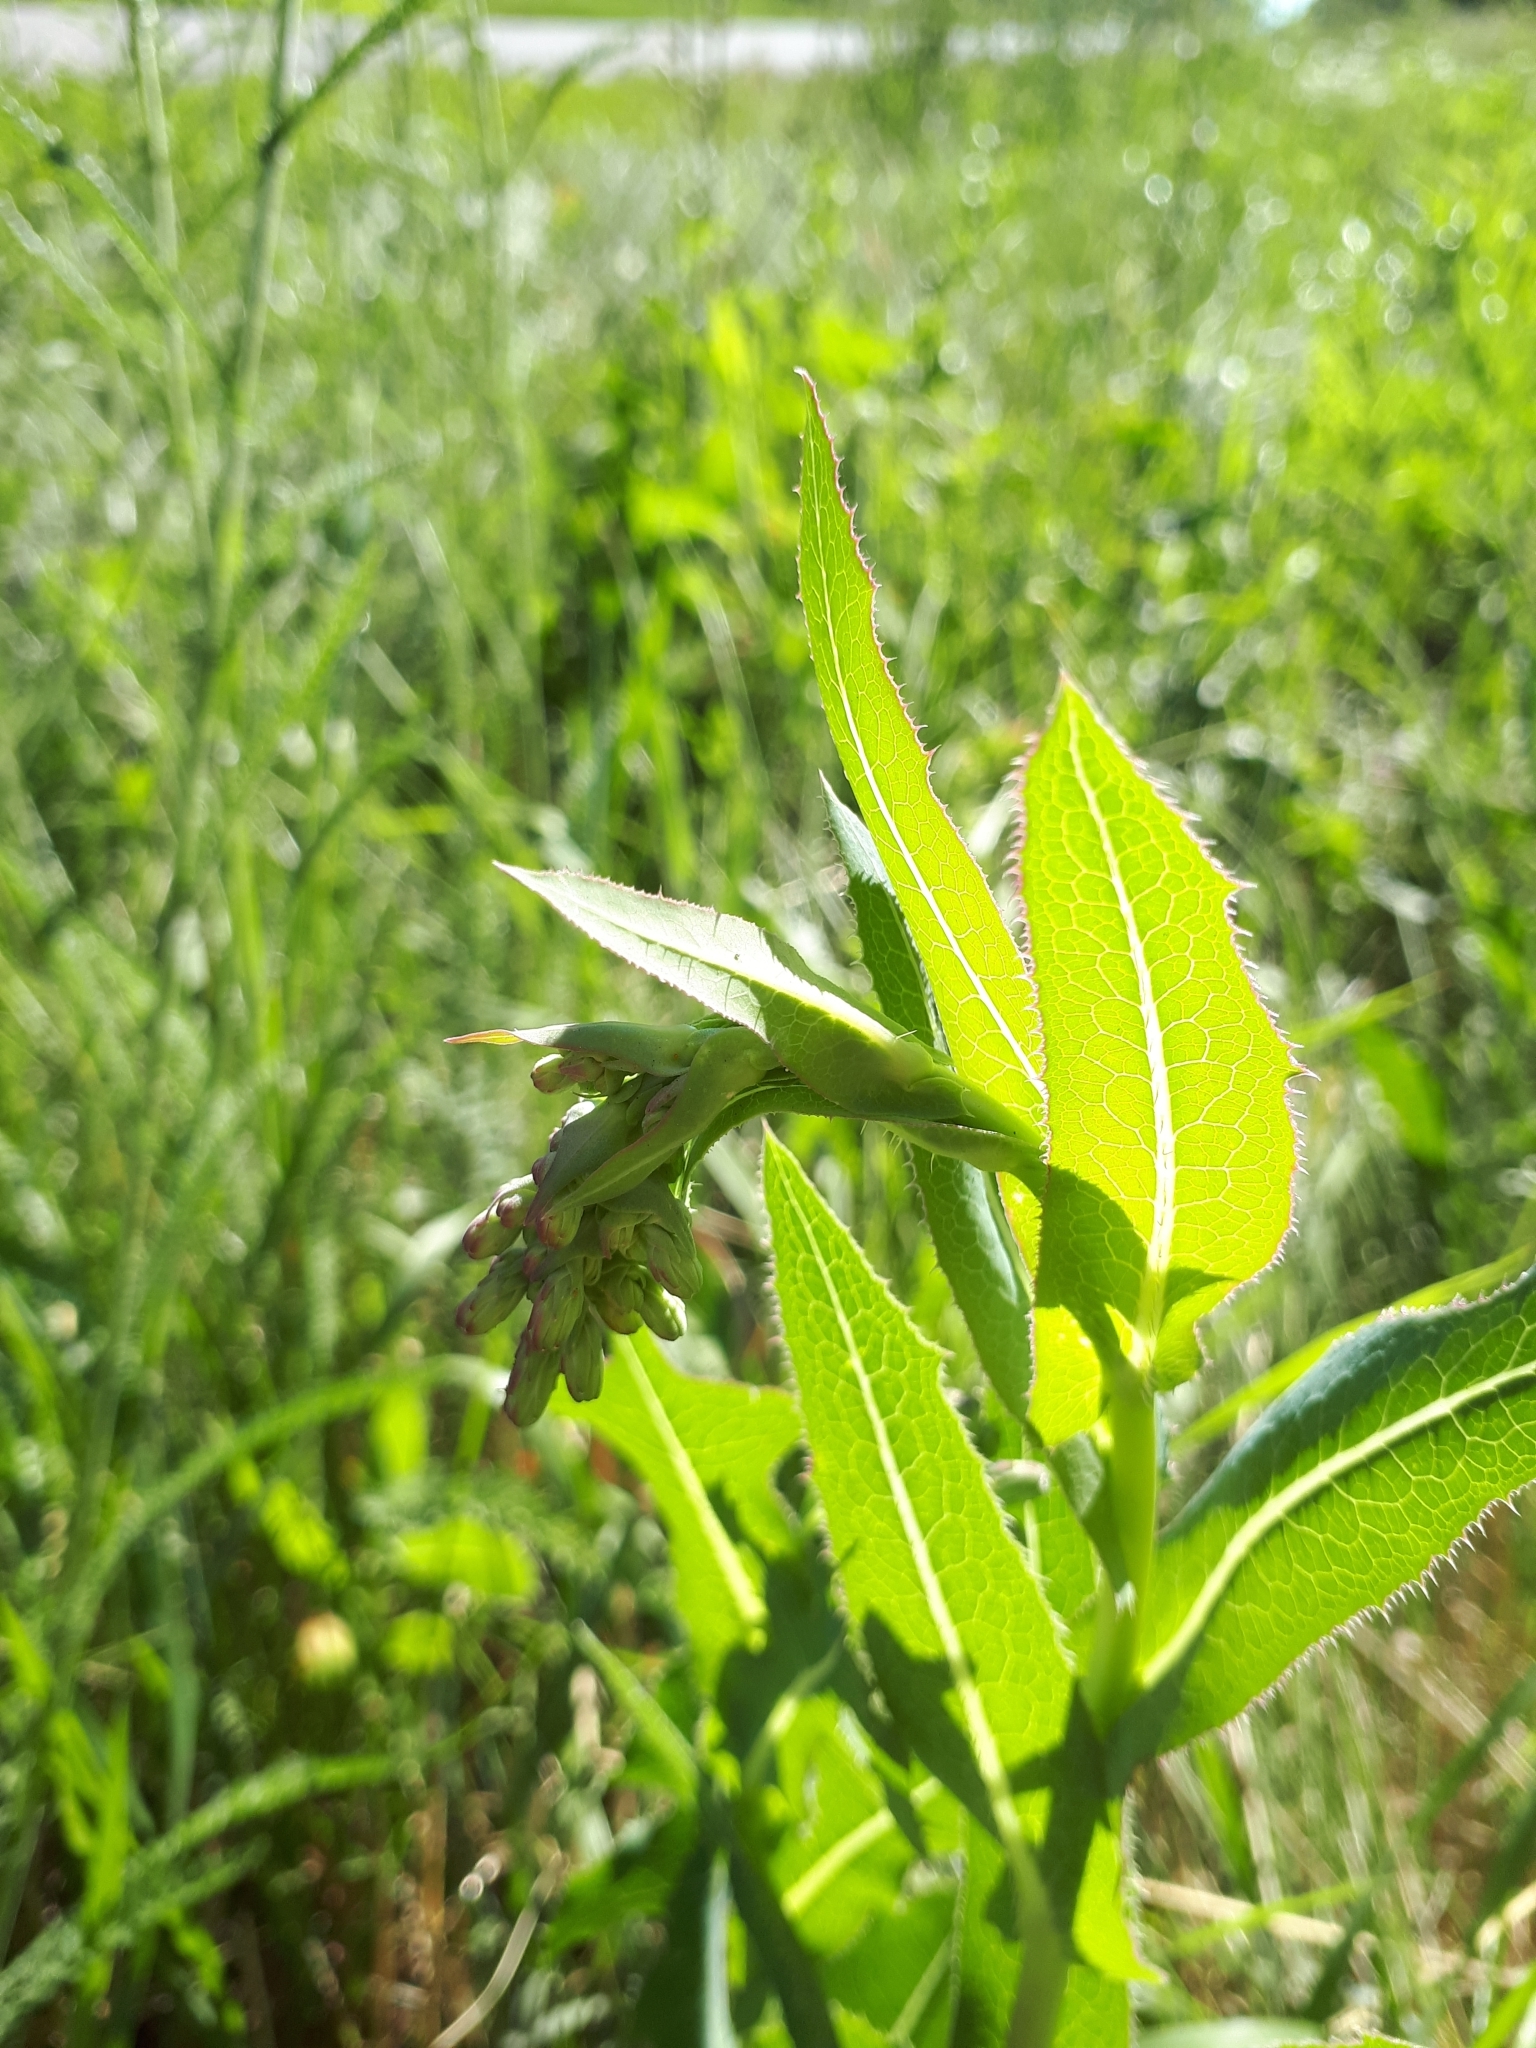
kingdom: Plantae
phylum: Tracheophyta
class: Magnoliopsida
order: Asterales
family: Asteraceae
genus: Lactuca
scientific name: Lactuca serriola
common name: Prickly lettuce
